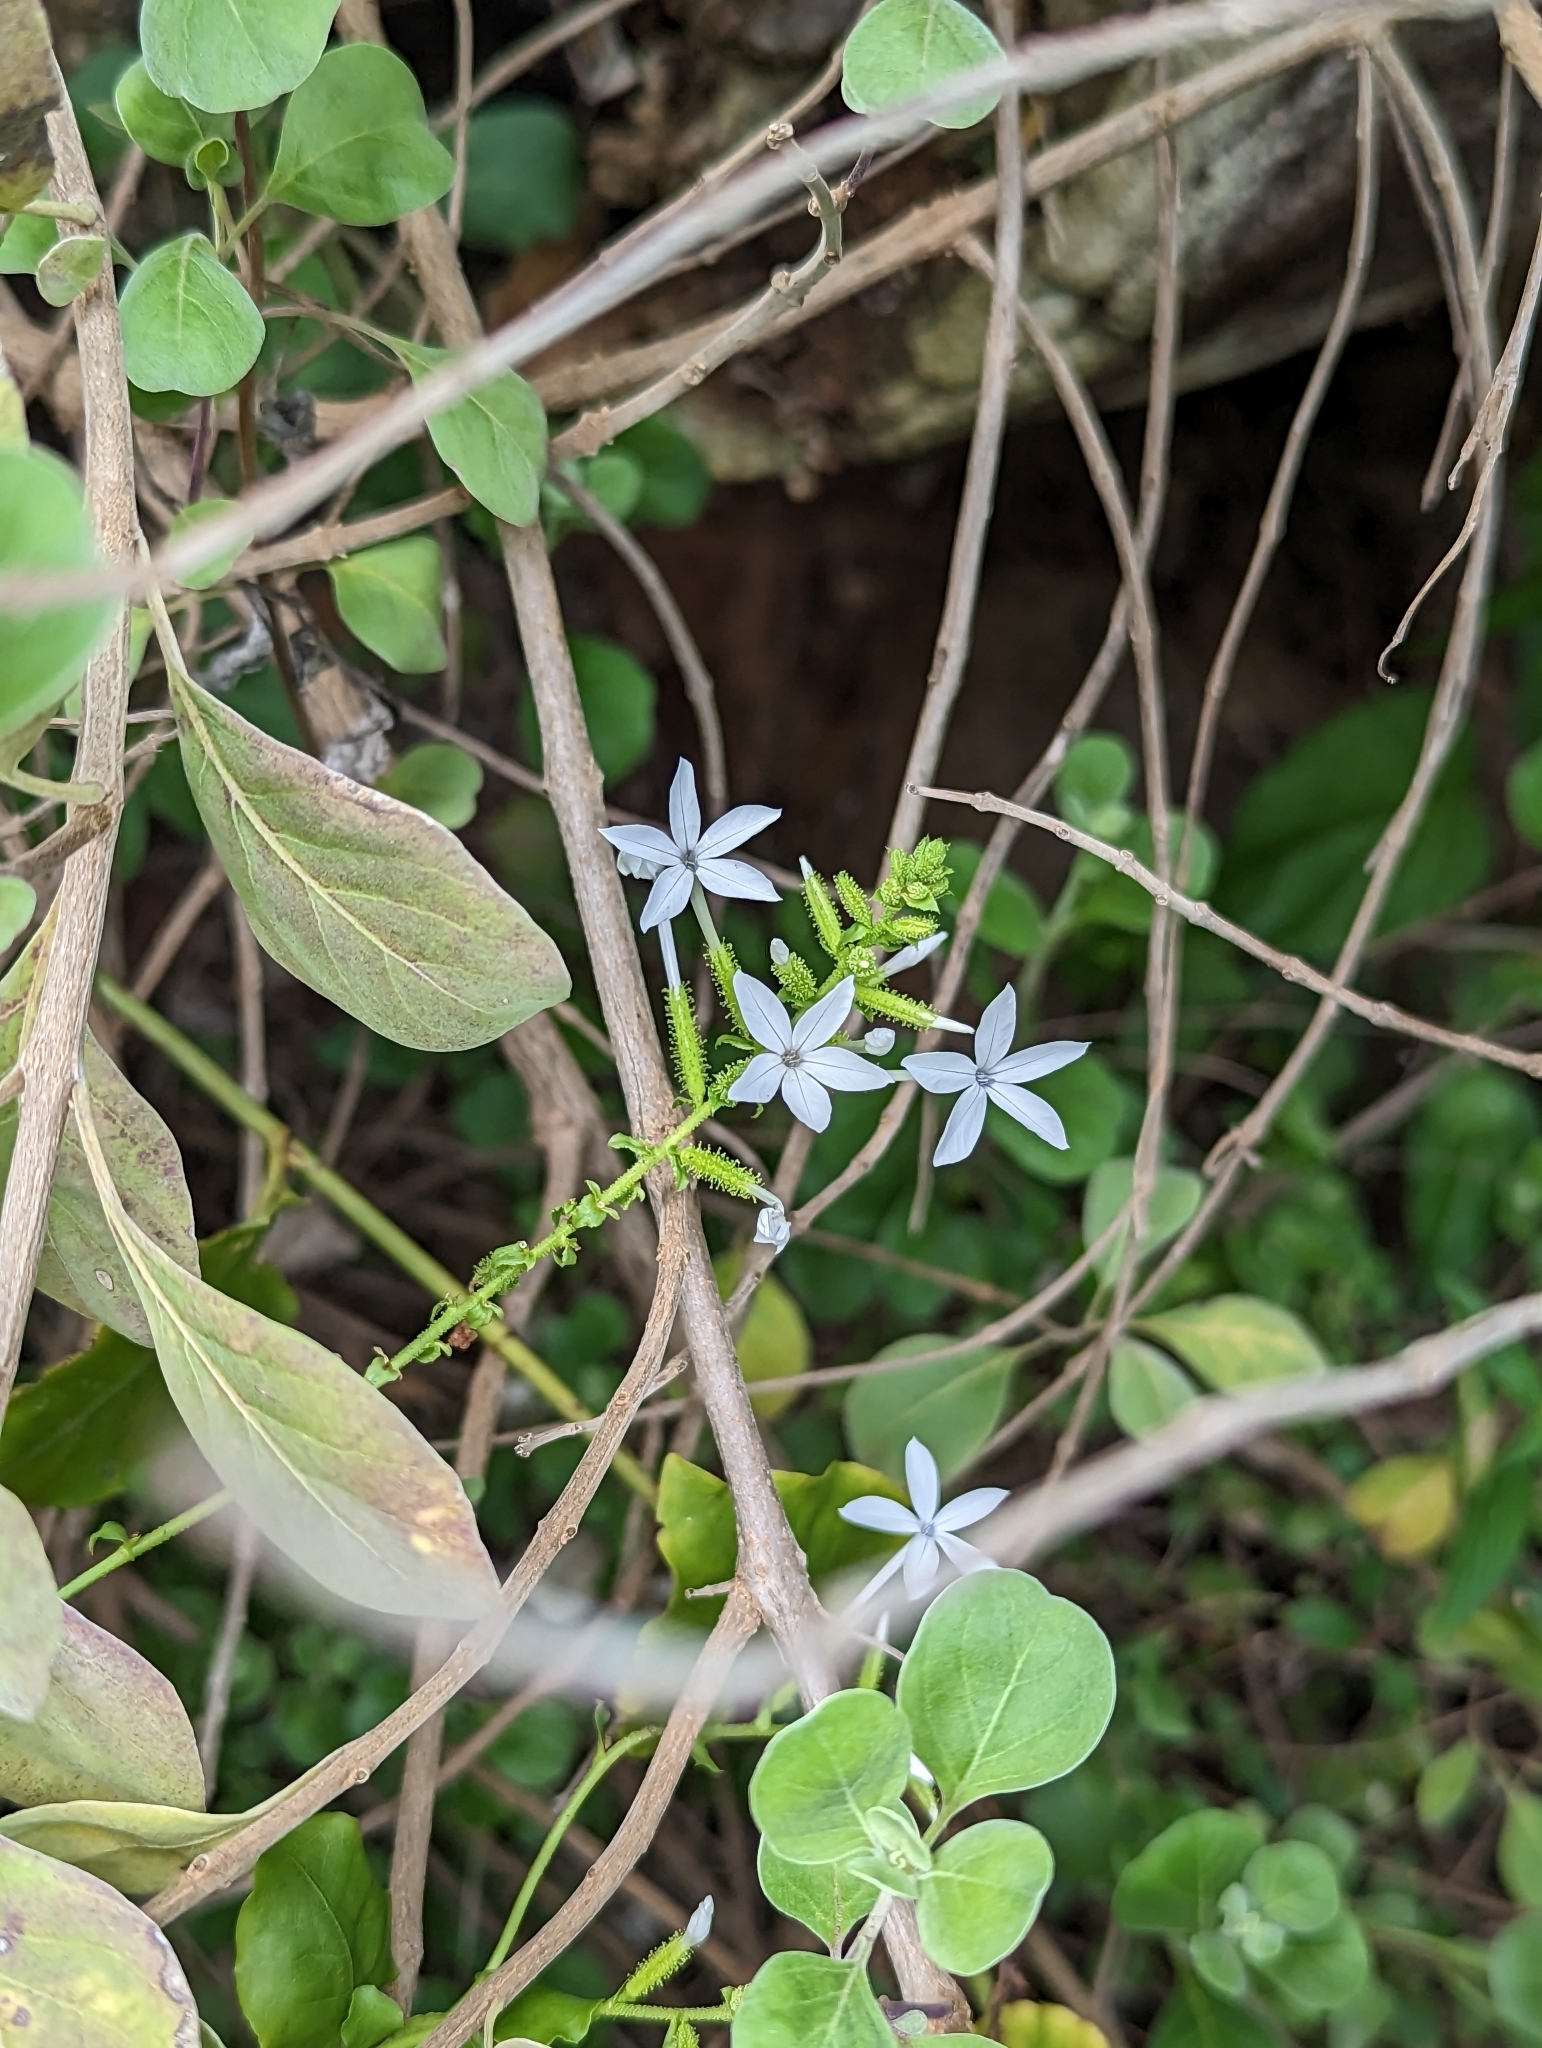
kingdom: Plantae
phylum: Tracheophyta
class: Magnoliopsida
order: Caryophyllales
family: Plumbaginaceae
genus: Plumbago
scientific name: Plumbago zeylanica
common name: Doctorbush
